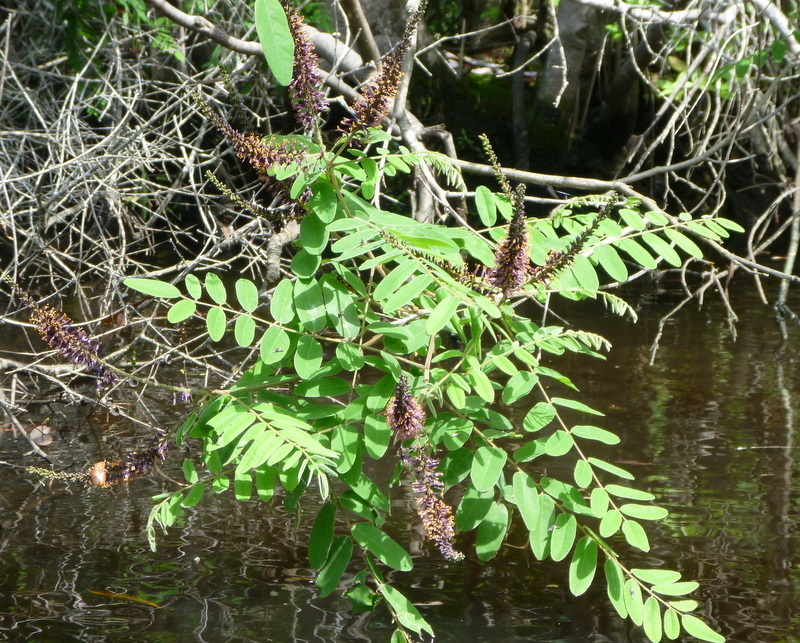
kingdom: Plantae
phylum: Tracheophyta
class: Magnoliopsida
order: Fabales
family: Fabaceae
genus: Amorpha
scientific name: Amorpha fruticosa
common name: False indigo
